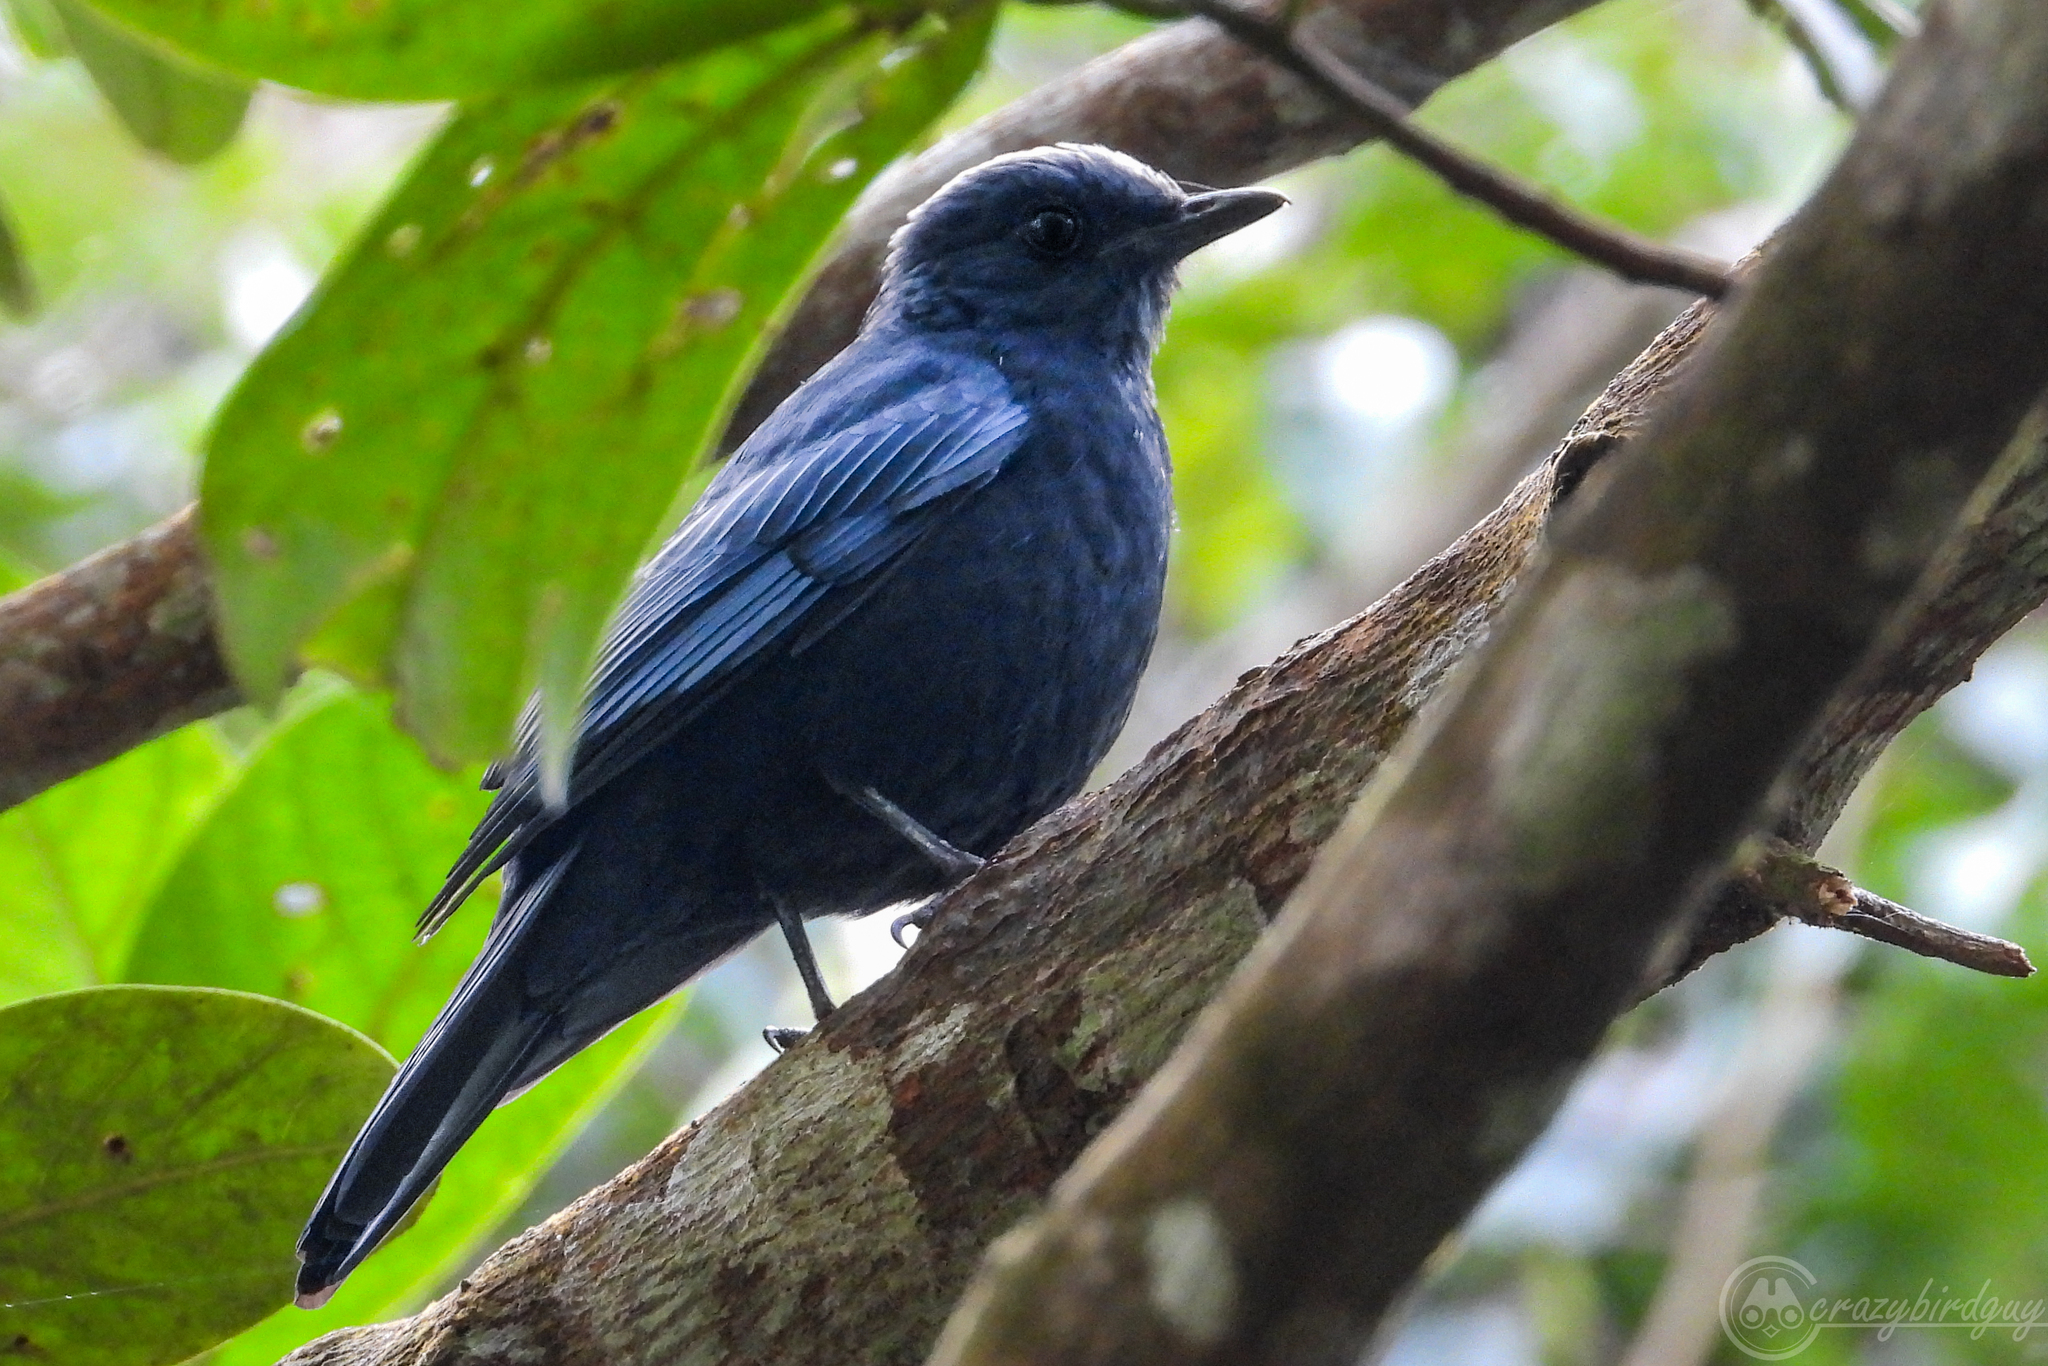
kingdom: Animalia
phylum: Chordata
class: Aves
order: Passeriformes
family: Turdidae
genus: Cochoa
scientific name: Cochoa azurea
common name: Javan cochoa
